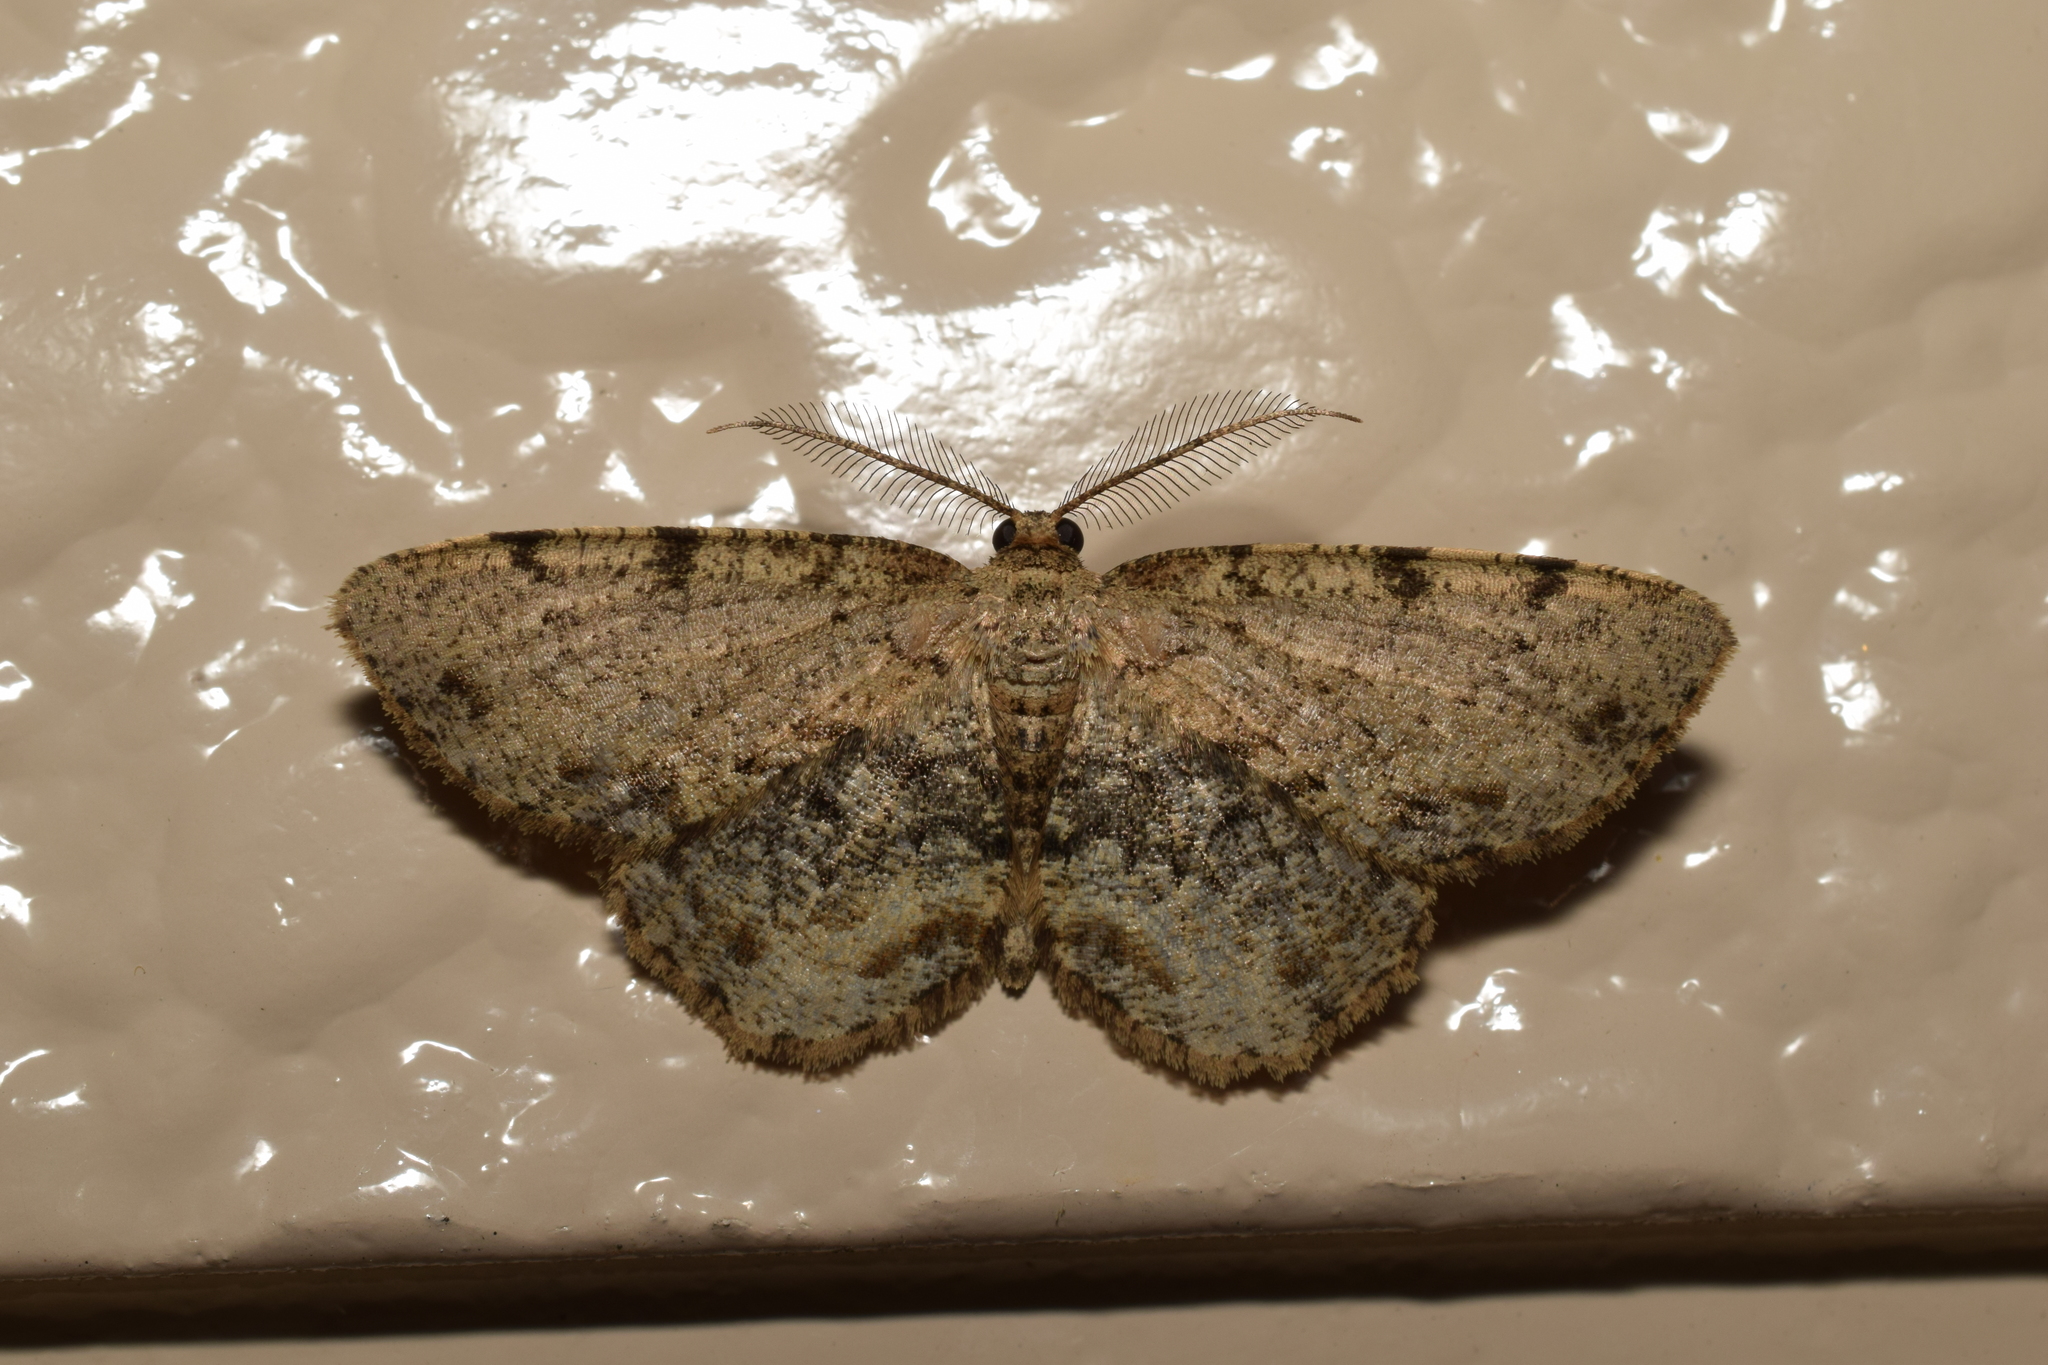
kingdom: Animalia
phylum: Arthropoda
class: Insecta
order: Lepidoptera
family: Geometridae
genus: Microcalicha
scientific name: Microcalicha sordida
